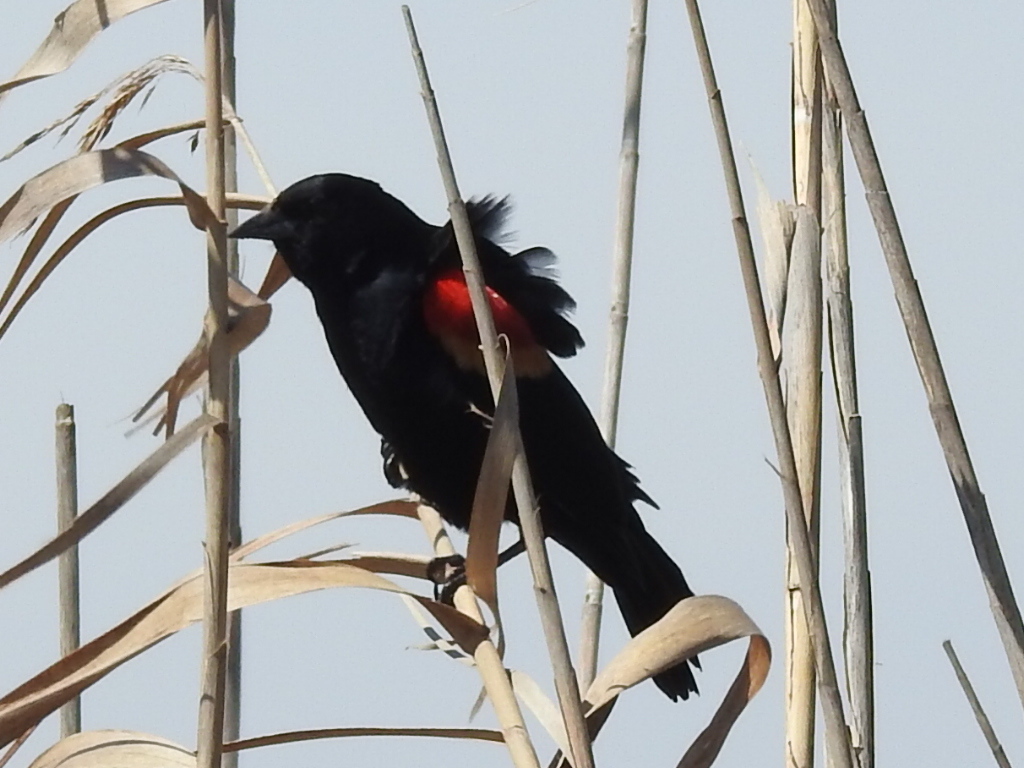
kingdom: Animalia
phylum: Chordata
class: Aves
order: Passeriformes
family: Icteridae
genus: Agelaius
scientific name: Agelaius phoeniceus
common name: Red-winged blackbird
